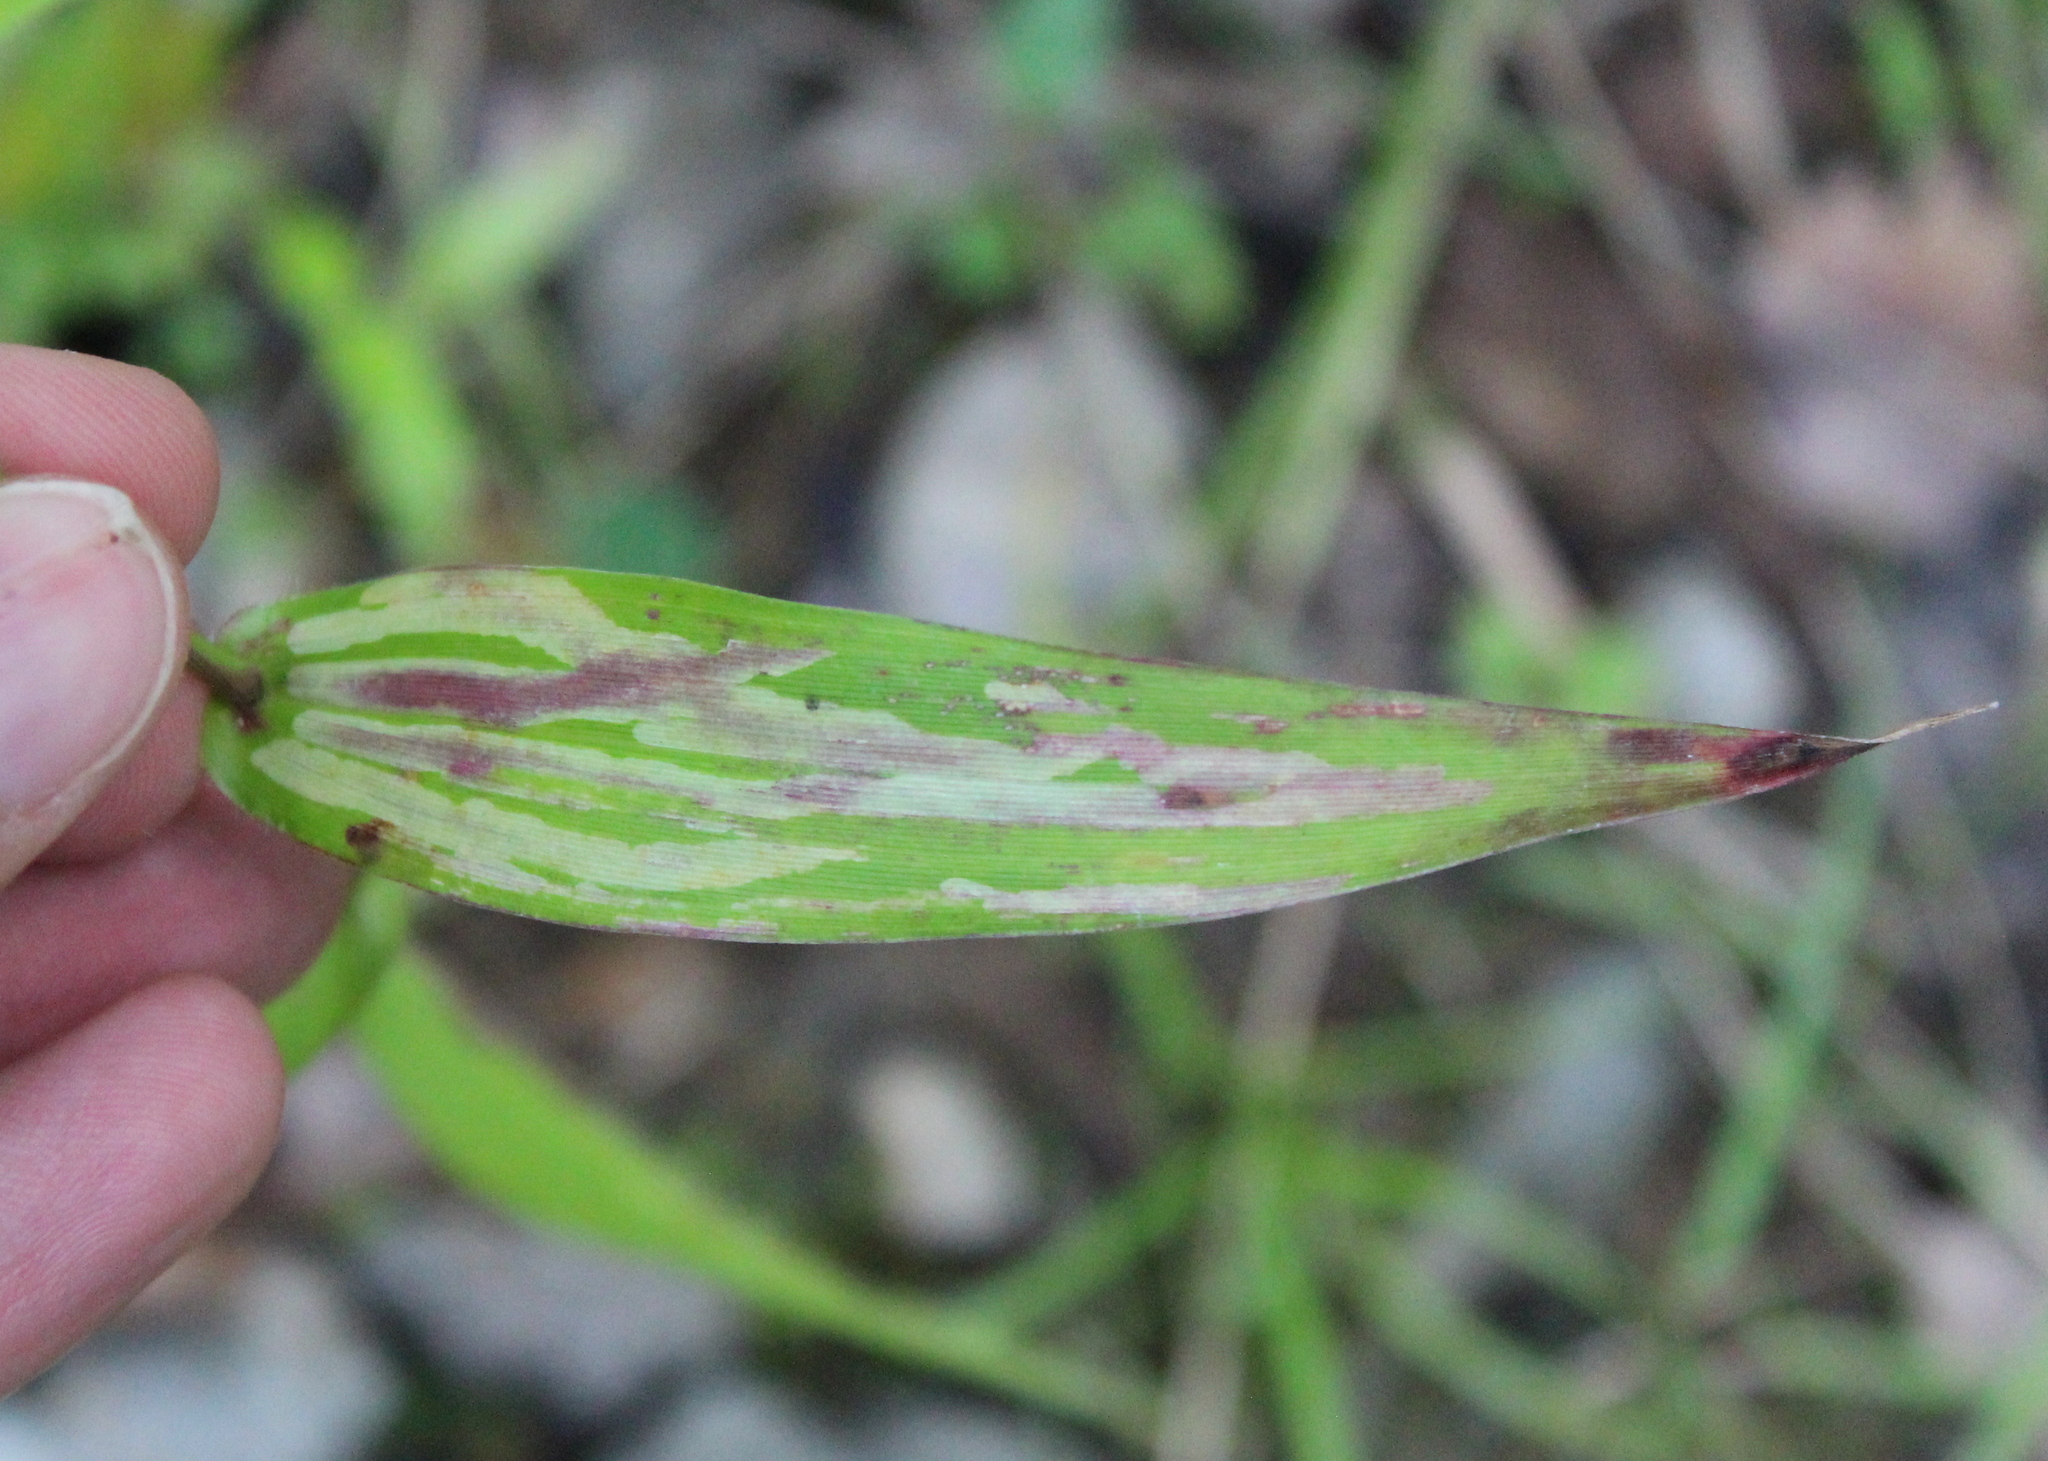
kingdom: Animalia
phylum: Arthropoda
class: Insecta
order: Diptera
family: Agromyzidae
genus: Cerodontha
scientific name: Cerodontha angulata
